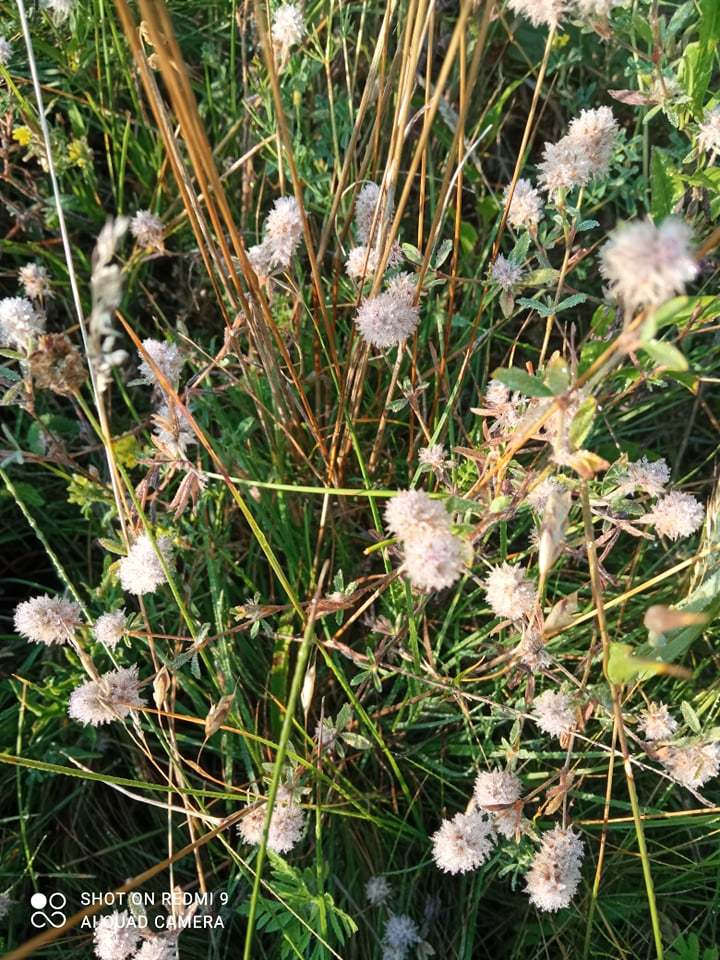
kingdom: Plantae
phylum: Tracheophyta
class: Magnoliopsida
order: Fabales
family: Fabaceae
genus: Trifolium
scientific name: Trifolium arvense
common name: Hare's-foot clover
